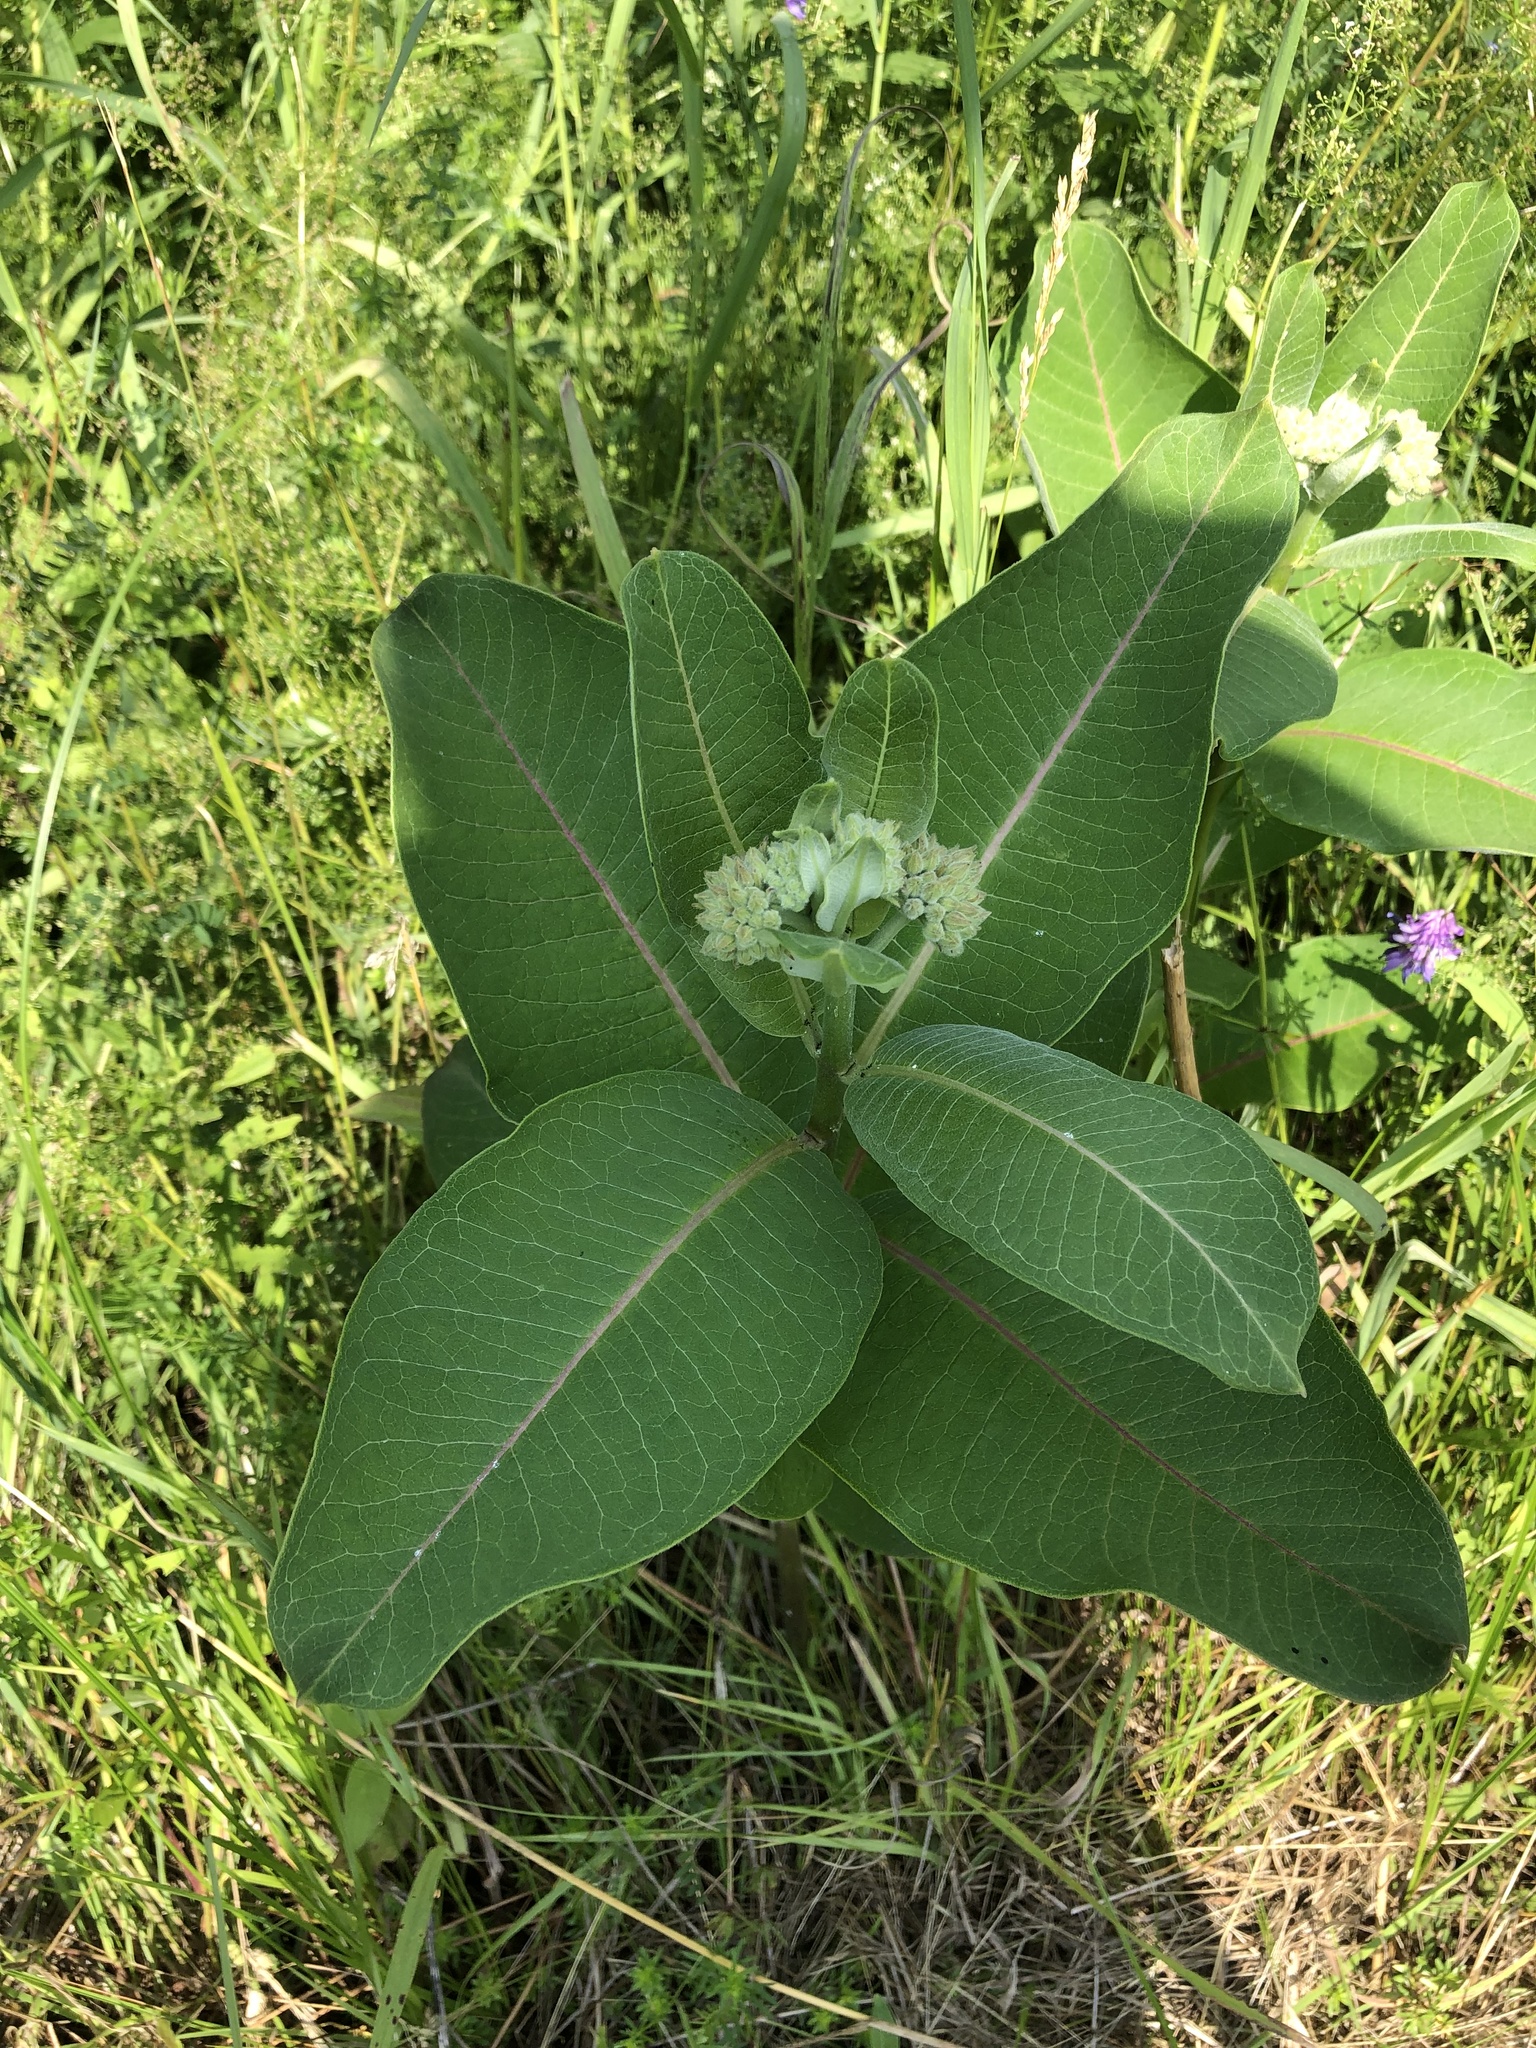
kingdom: Plantae
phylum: Tracheophyta
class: Magnoliopsida
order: Gentianales
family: Apocynaceae
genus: Asclepias
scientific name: Asclepias syriaca
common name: Common milkweed
